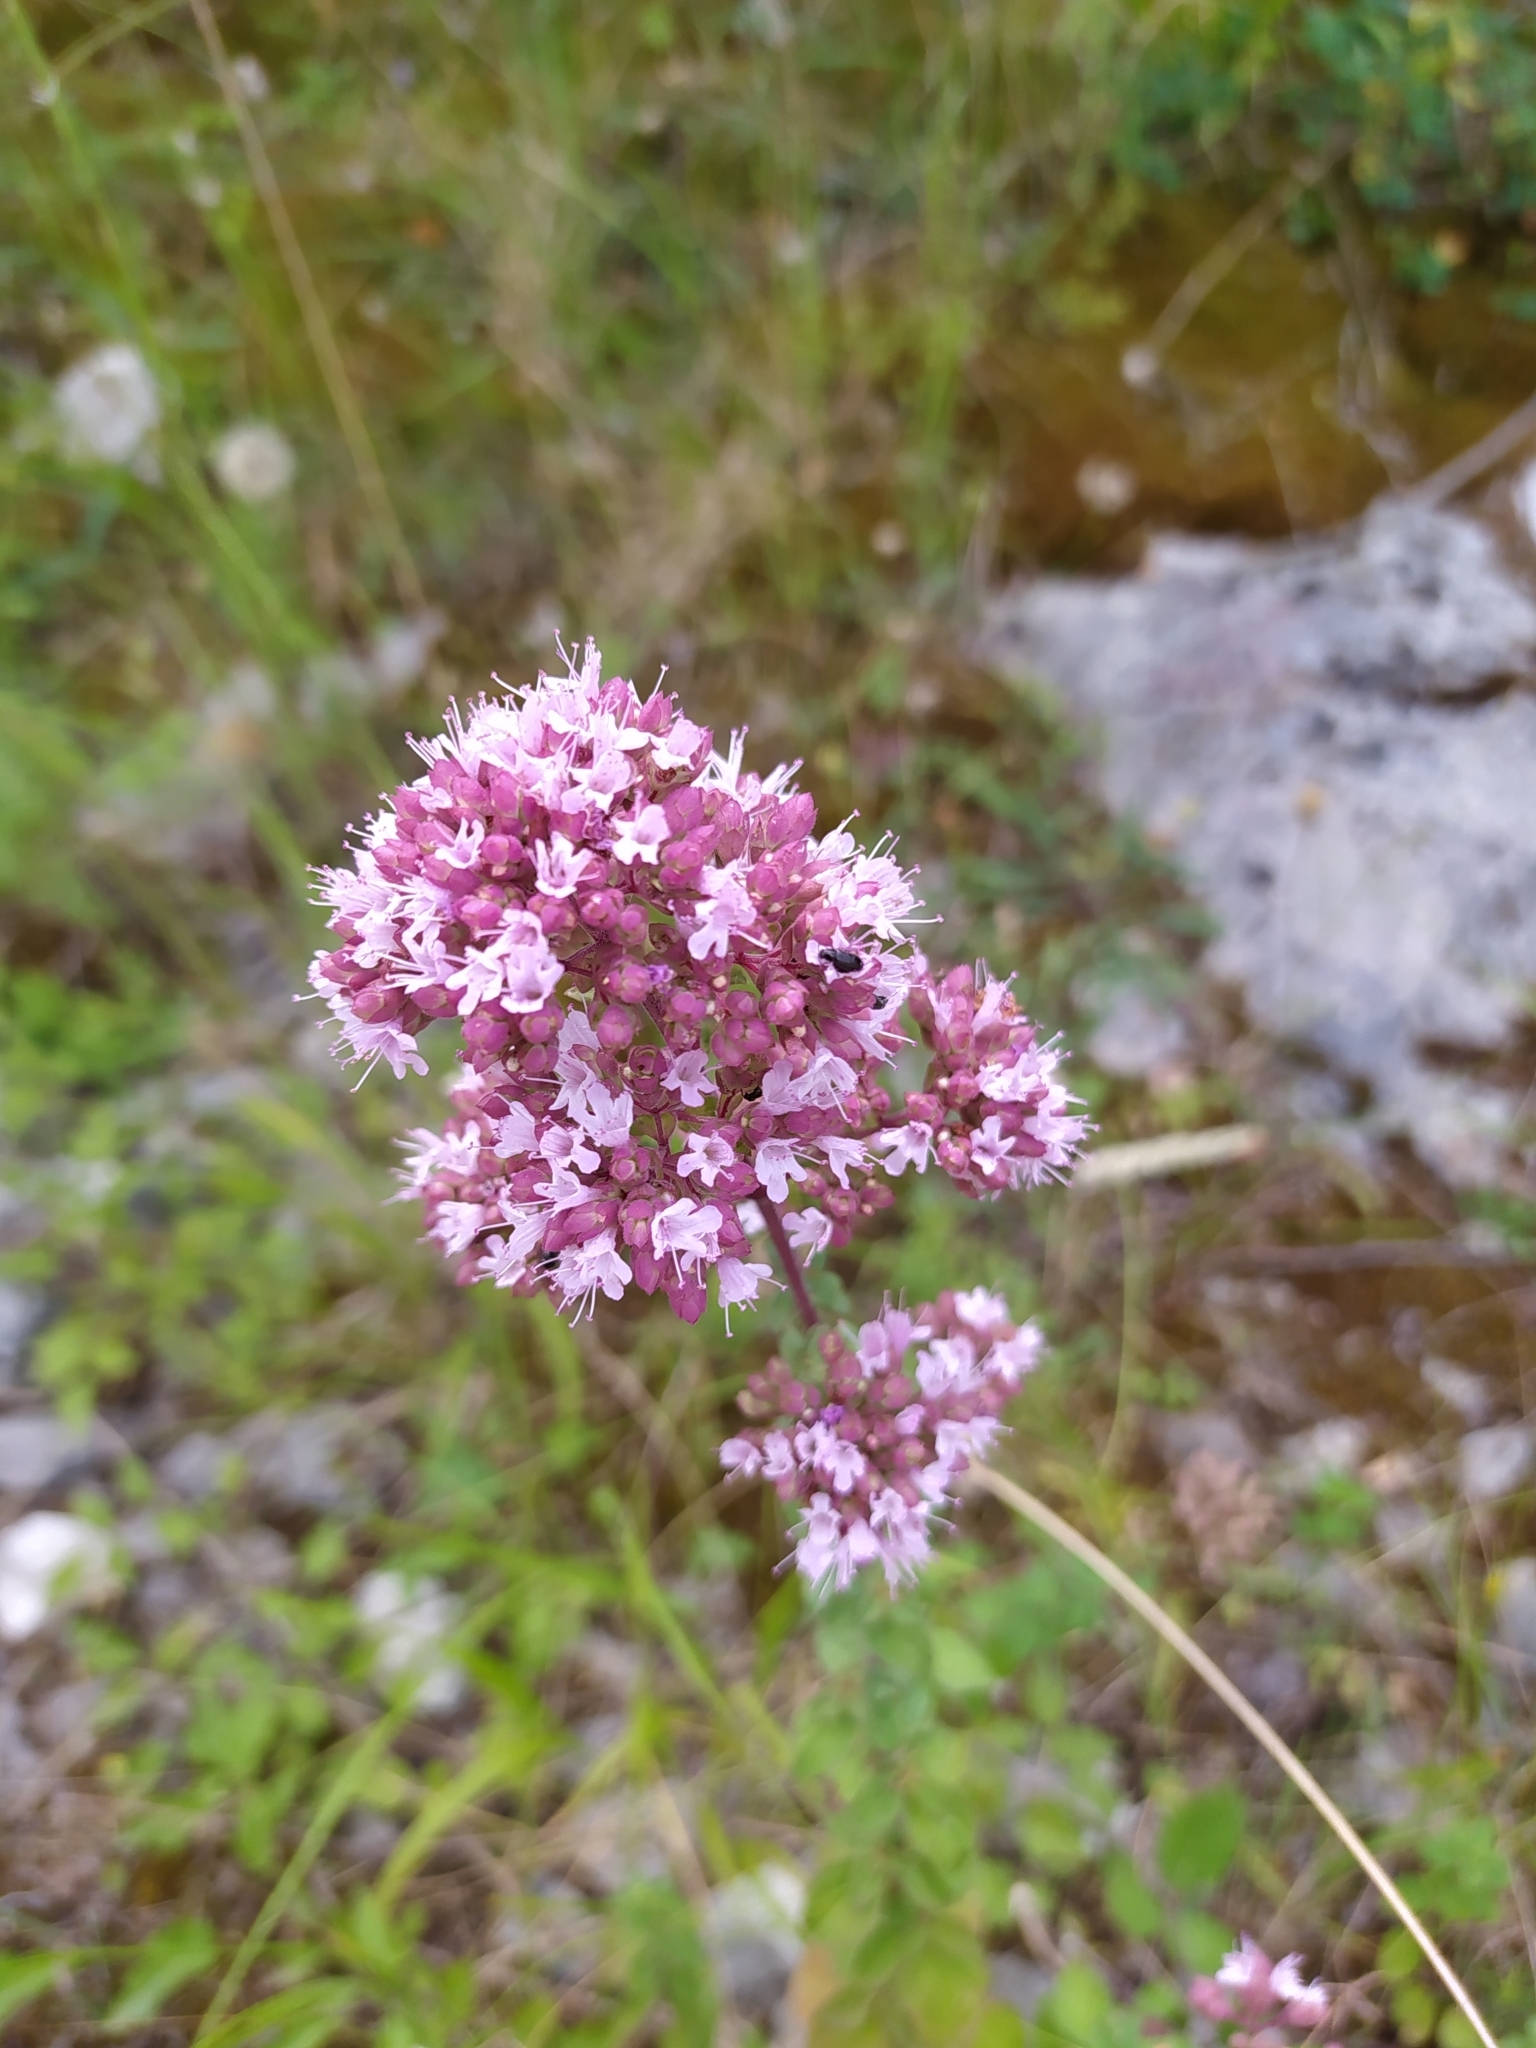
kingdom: Plantae
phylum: Tracheophyta
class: Magnoliopsida
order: Lamiales
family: Lamiaceae
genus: Origanum
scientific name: Origanum vulgare
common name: Wild marjoram
